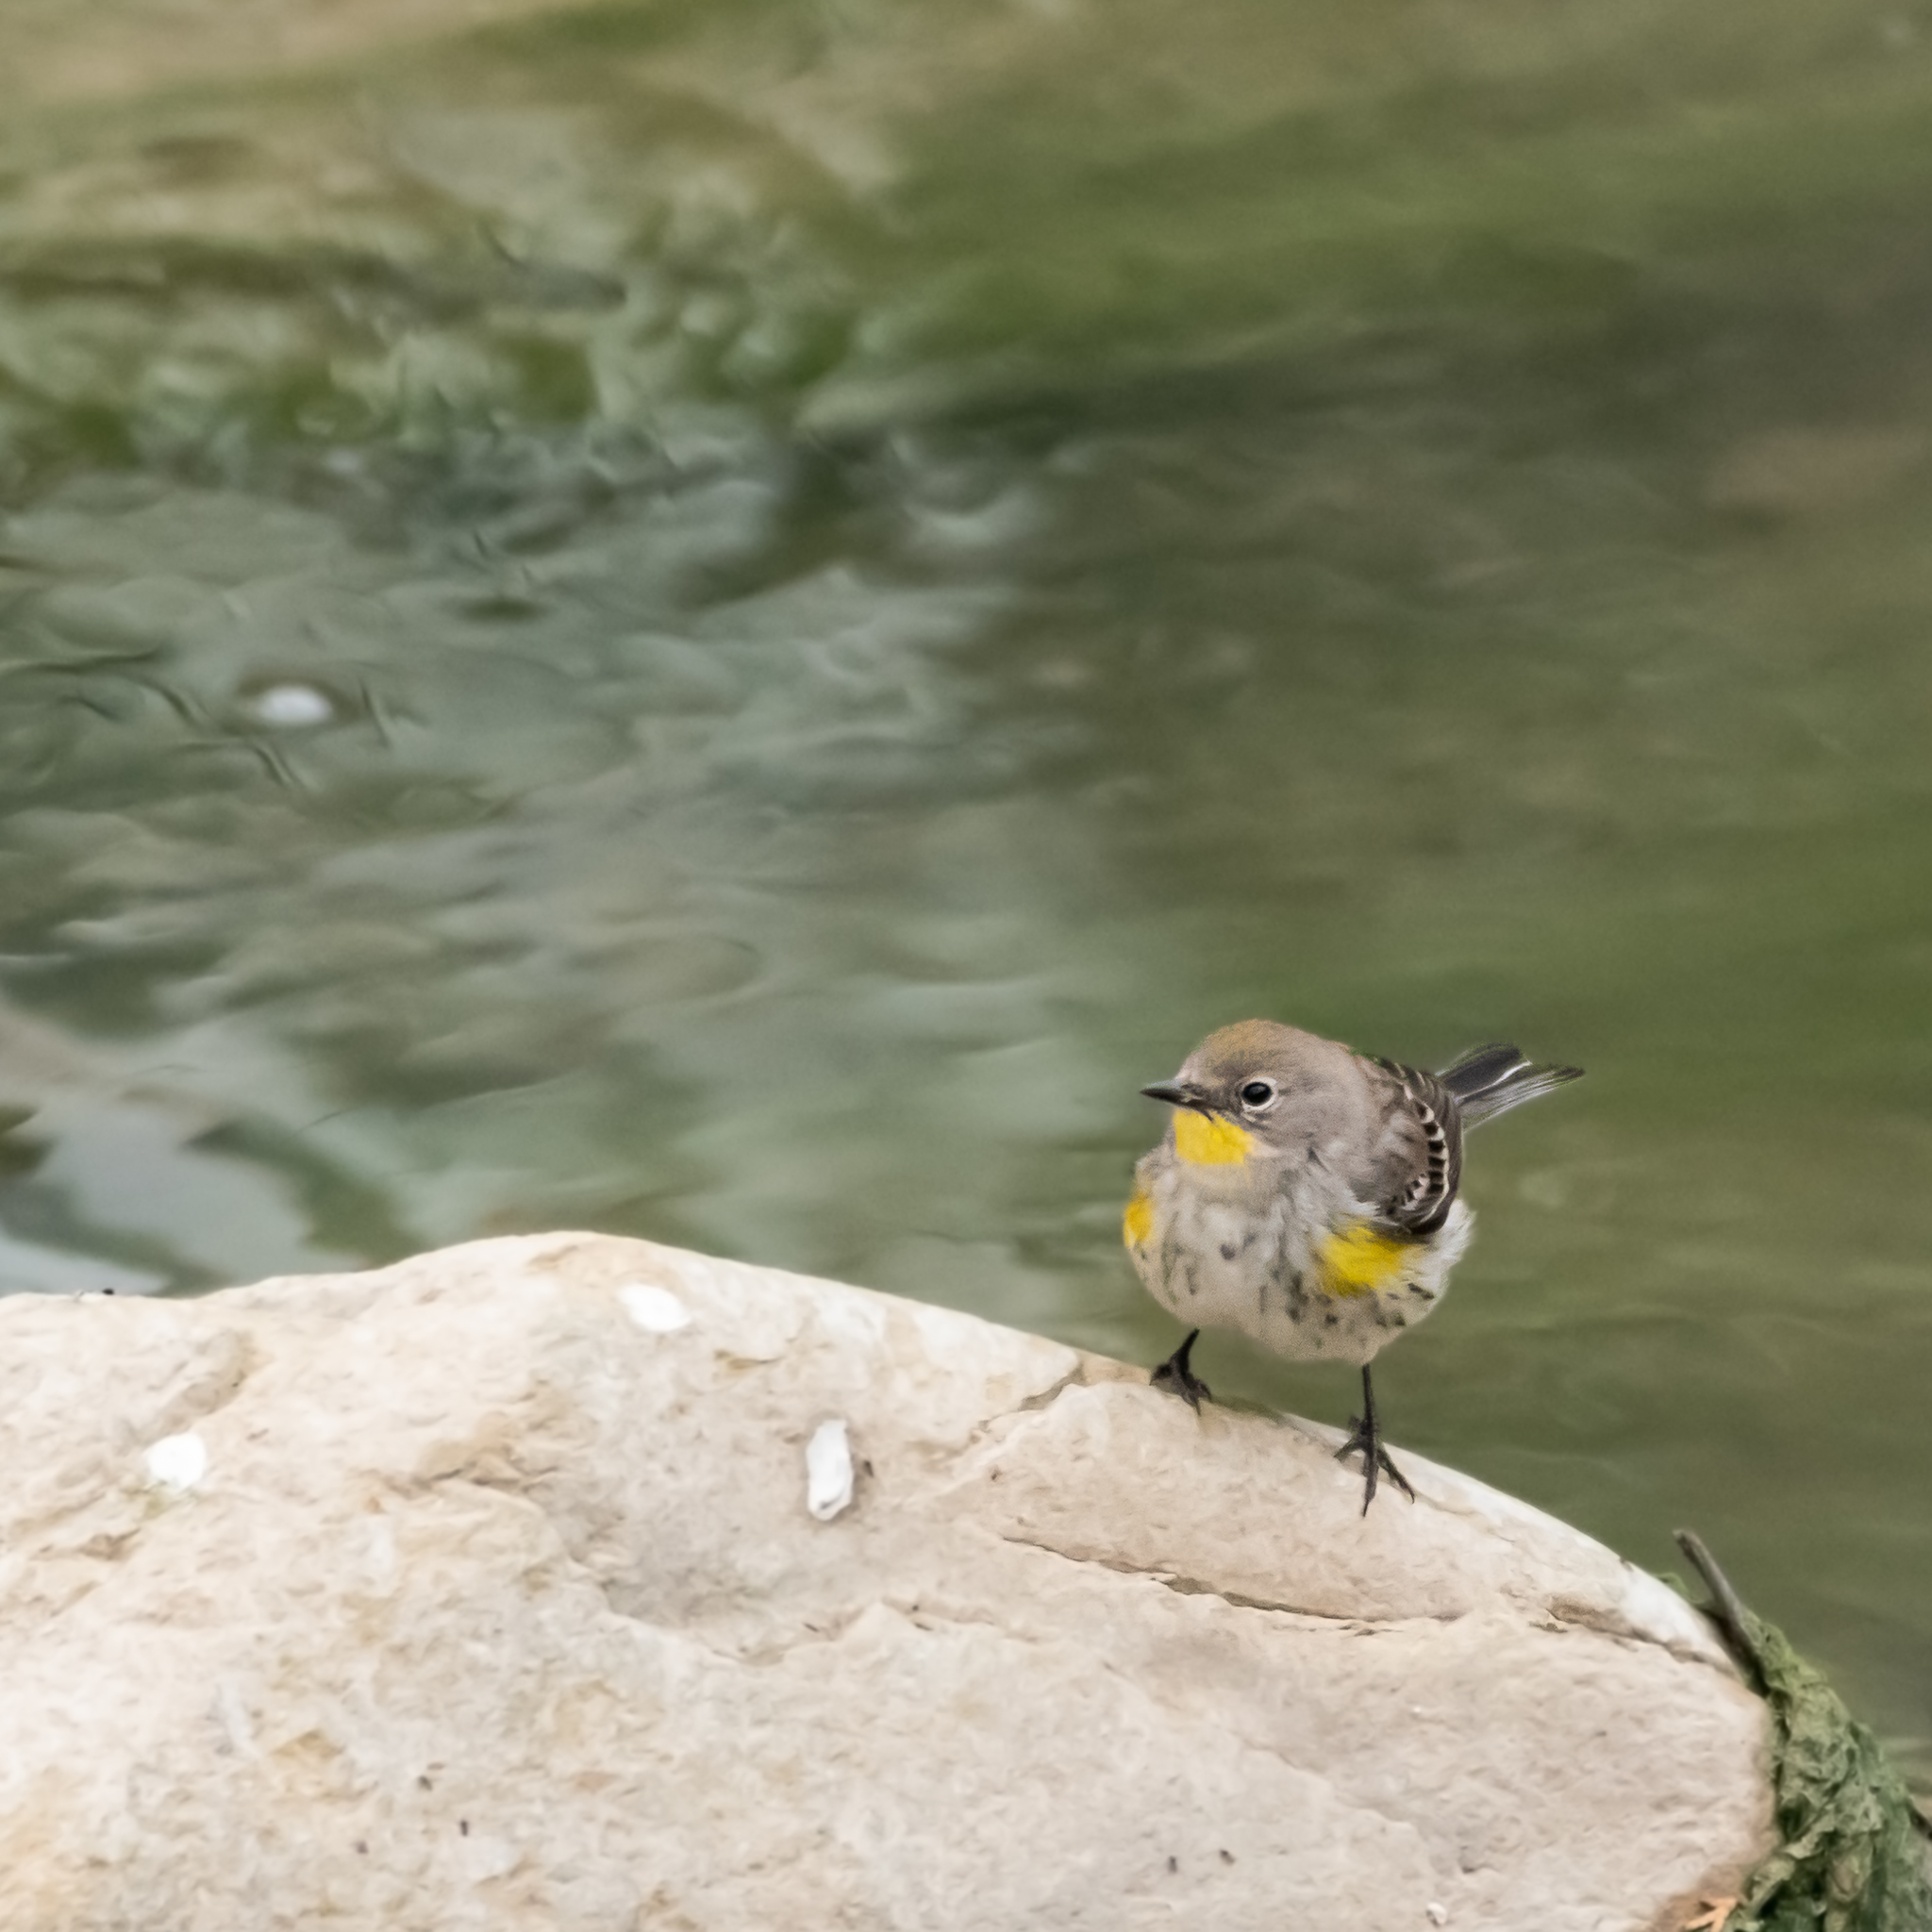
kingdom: Animalia
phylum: Chordata
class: Aves
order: Passeriformes
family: Parulidae
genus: Setophaga
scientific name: Setophaga auduboni
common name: Audubon's warbler
